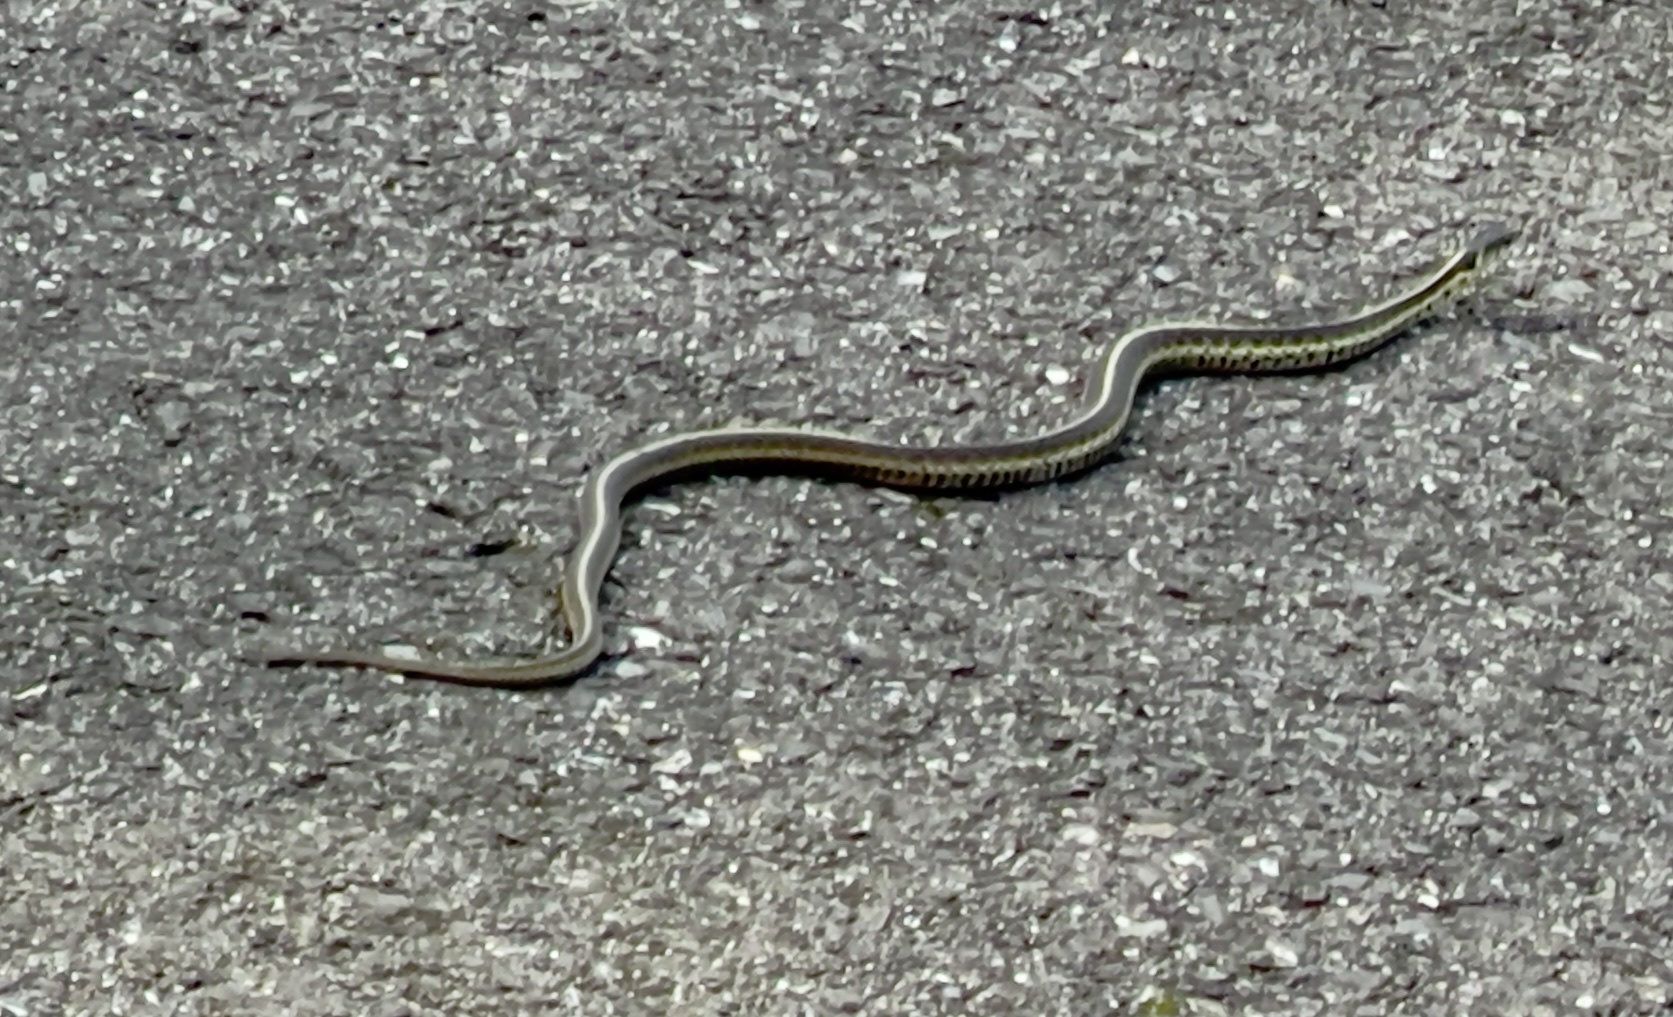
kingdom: Animalia
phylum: Chordata
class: Squamata
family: Colubridae
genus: Thamnophis
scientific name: Thamnophis sirtalis
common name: Common garter snake
